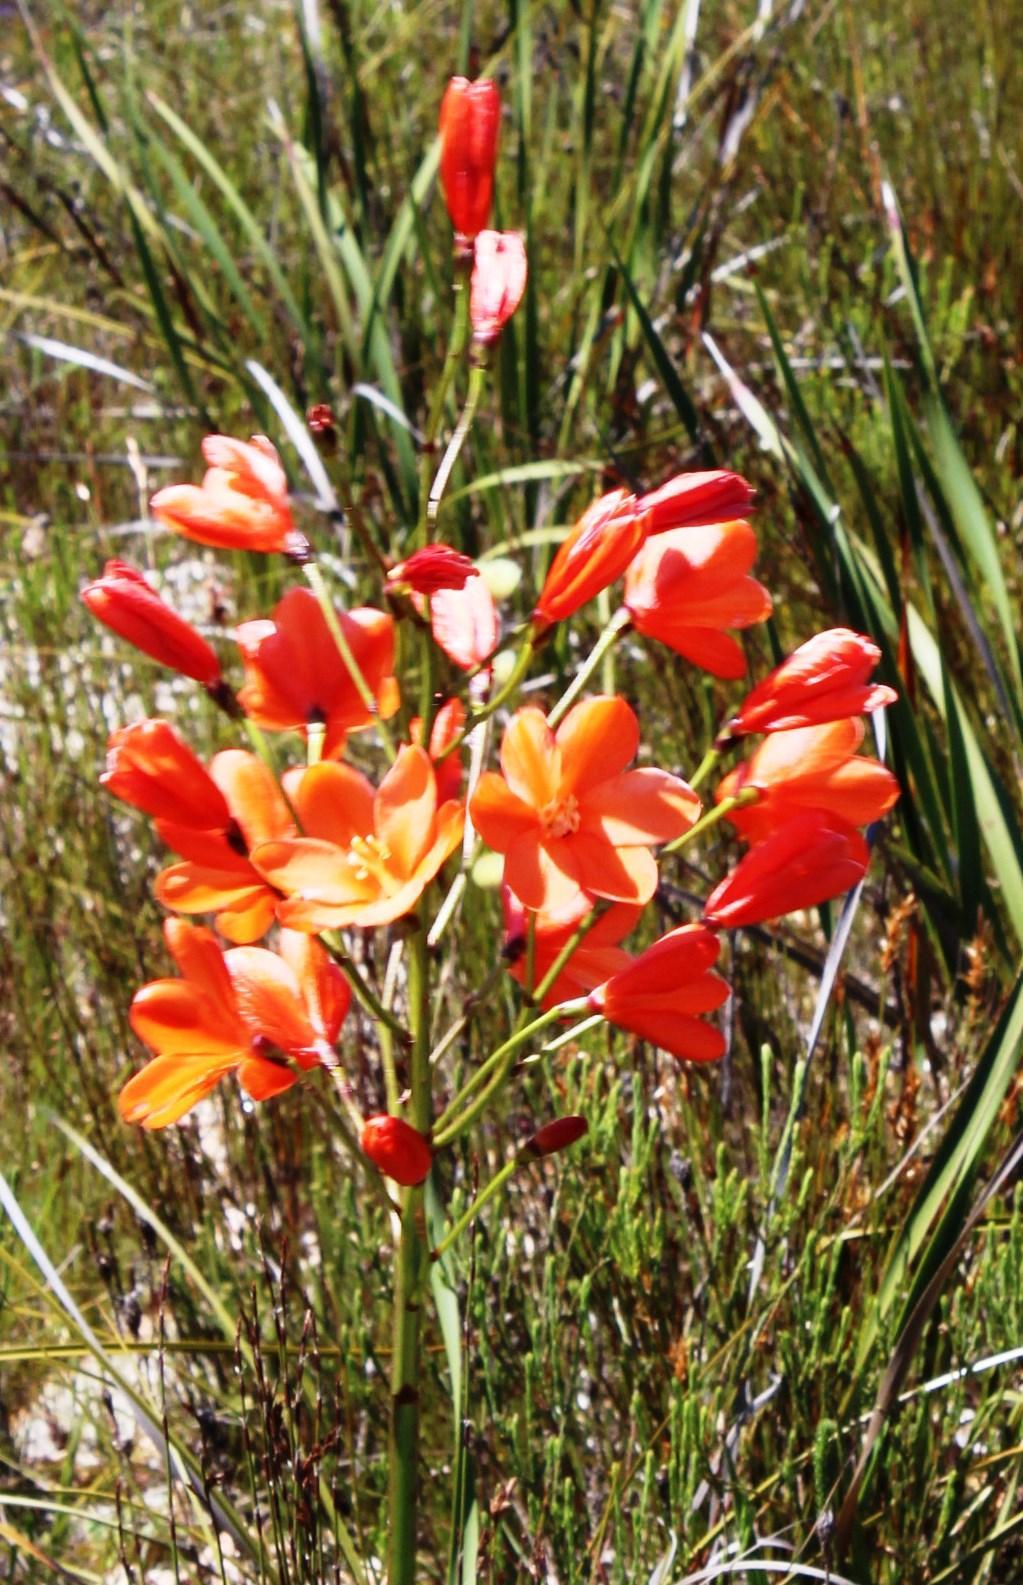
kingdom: Plantae
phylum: Tracheophyta
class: Liliopsida
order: Asparagales
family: Iridaceae
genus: Pillansia
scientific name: Pillansia templemannii
